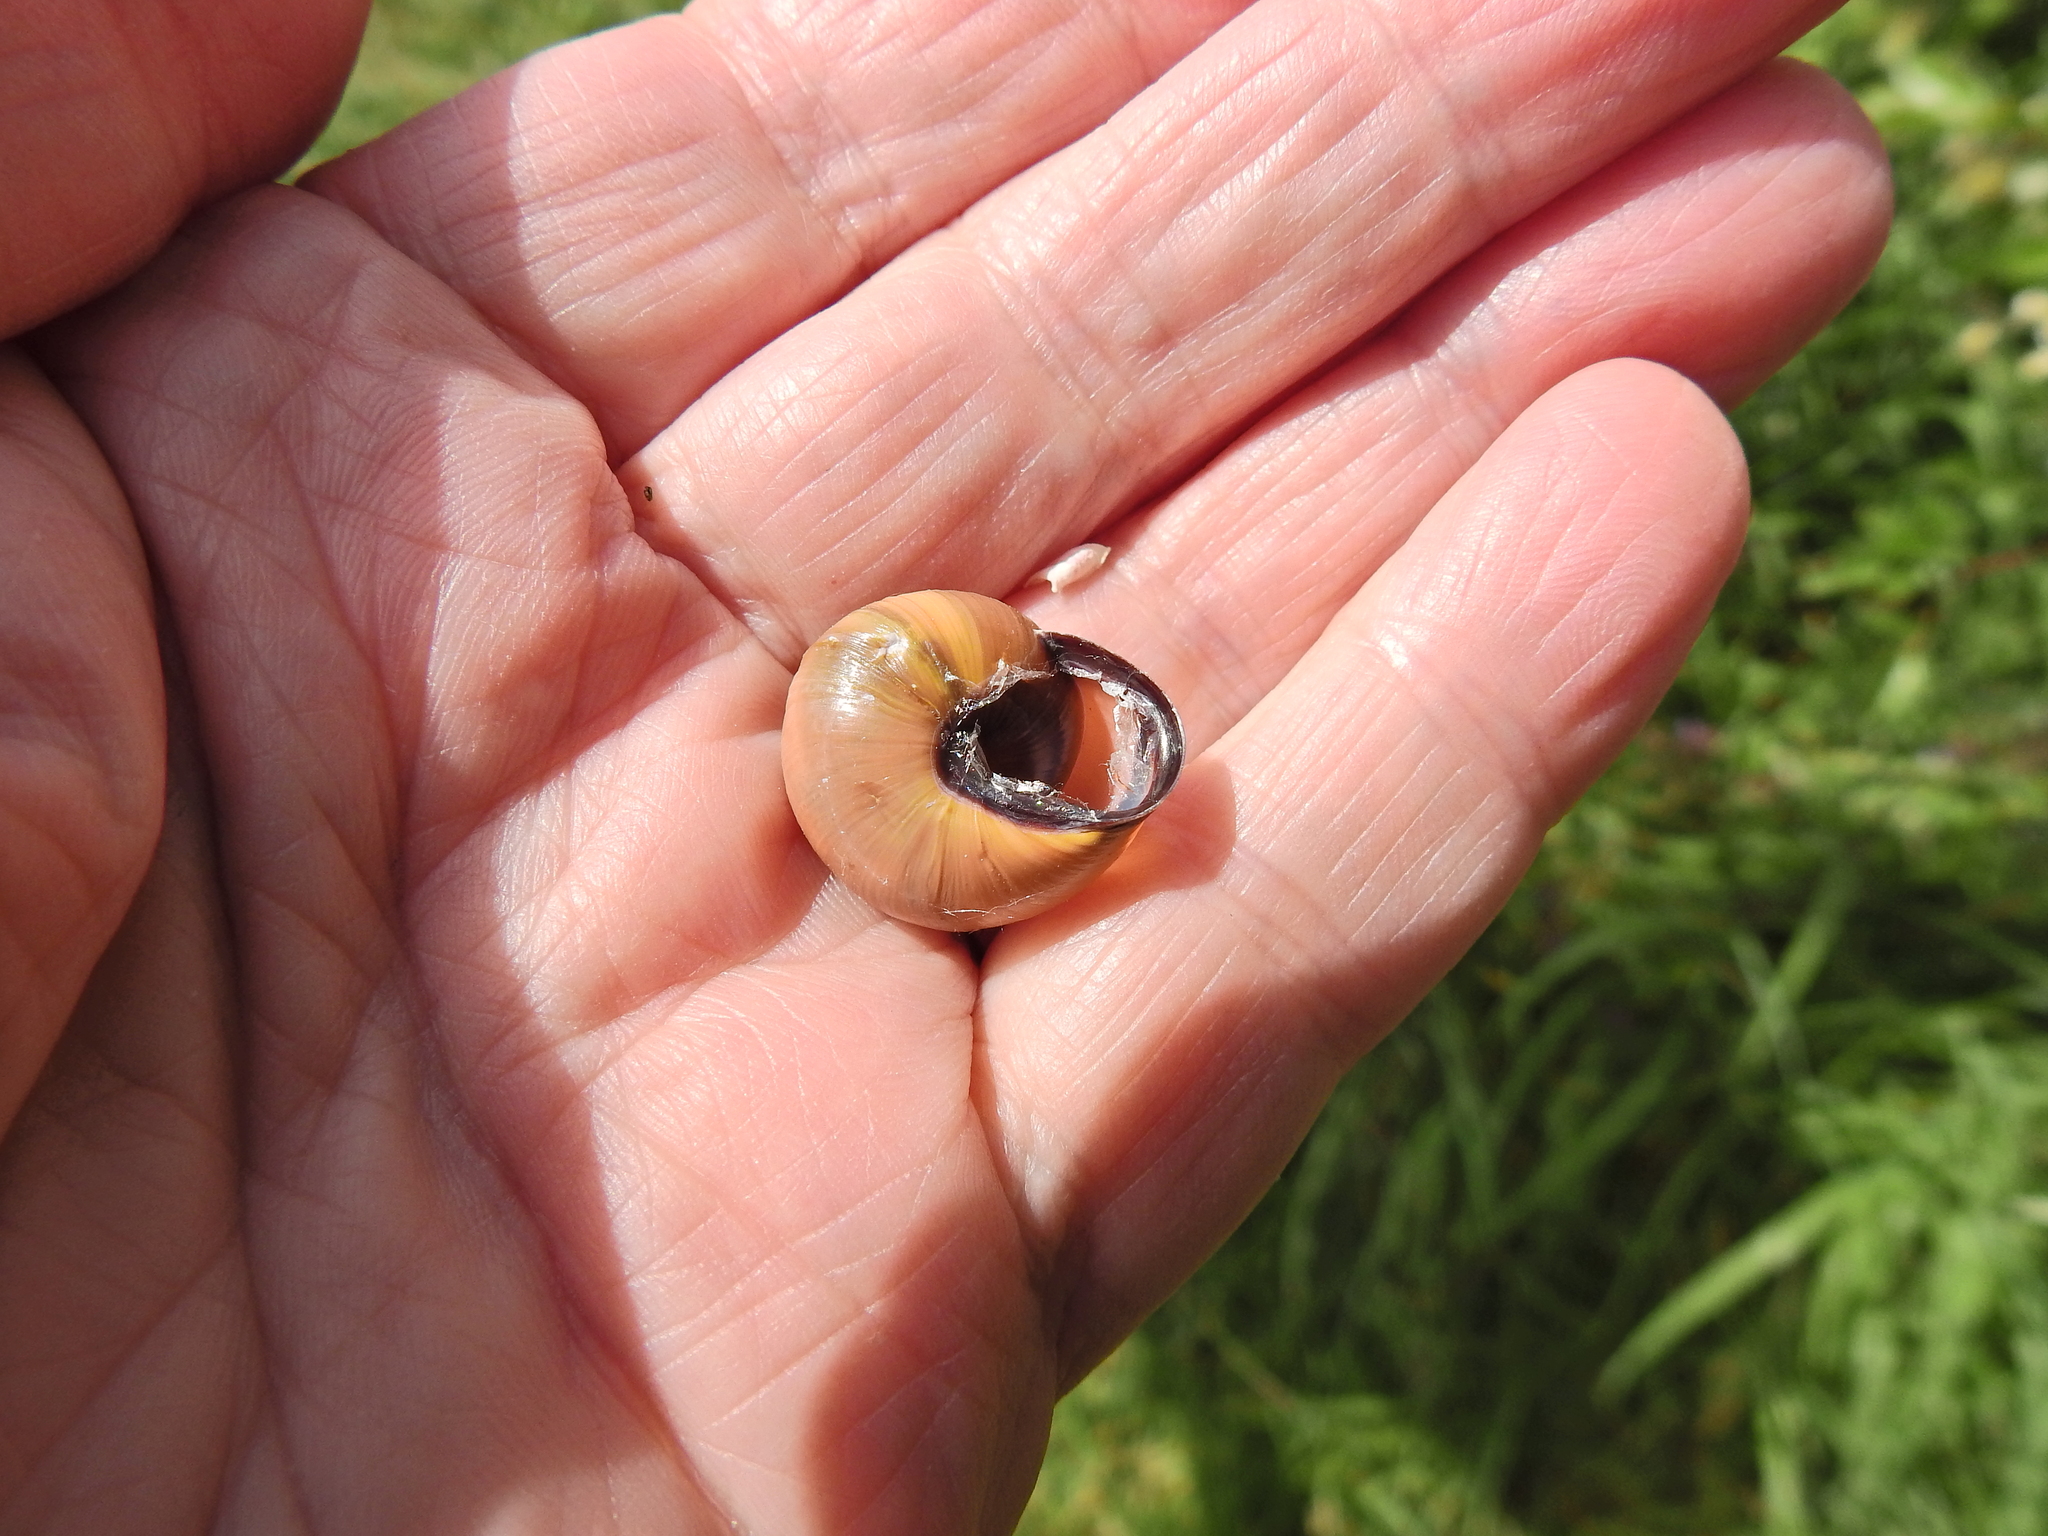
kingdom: Animalia
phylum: Mollusca
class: Gastropoda
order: Stylommatophora
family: Helicidae
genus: Cepaea
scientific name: Cepaea nemoralis
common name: Grovesnail
